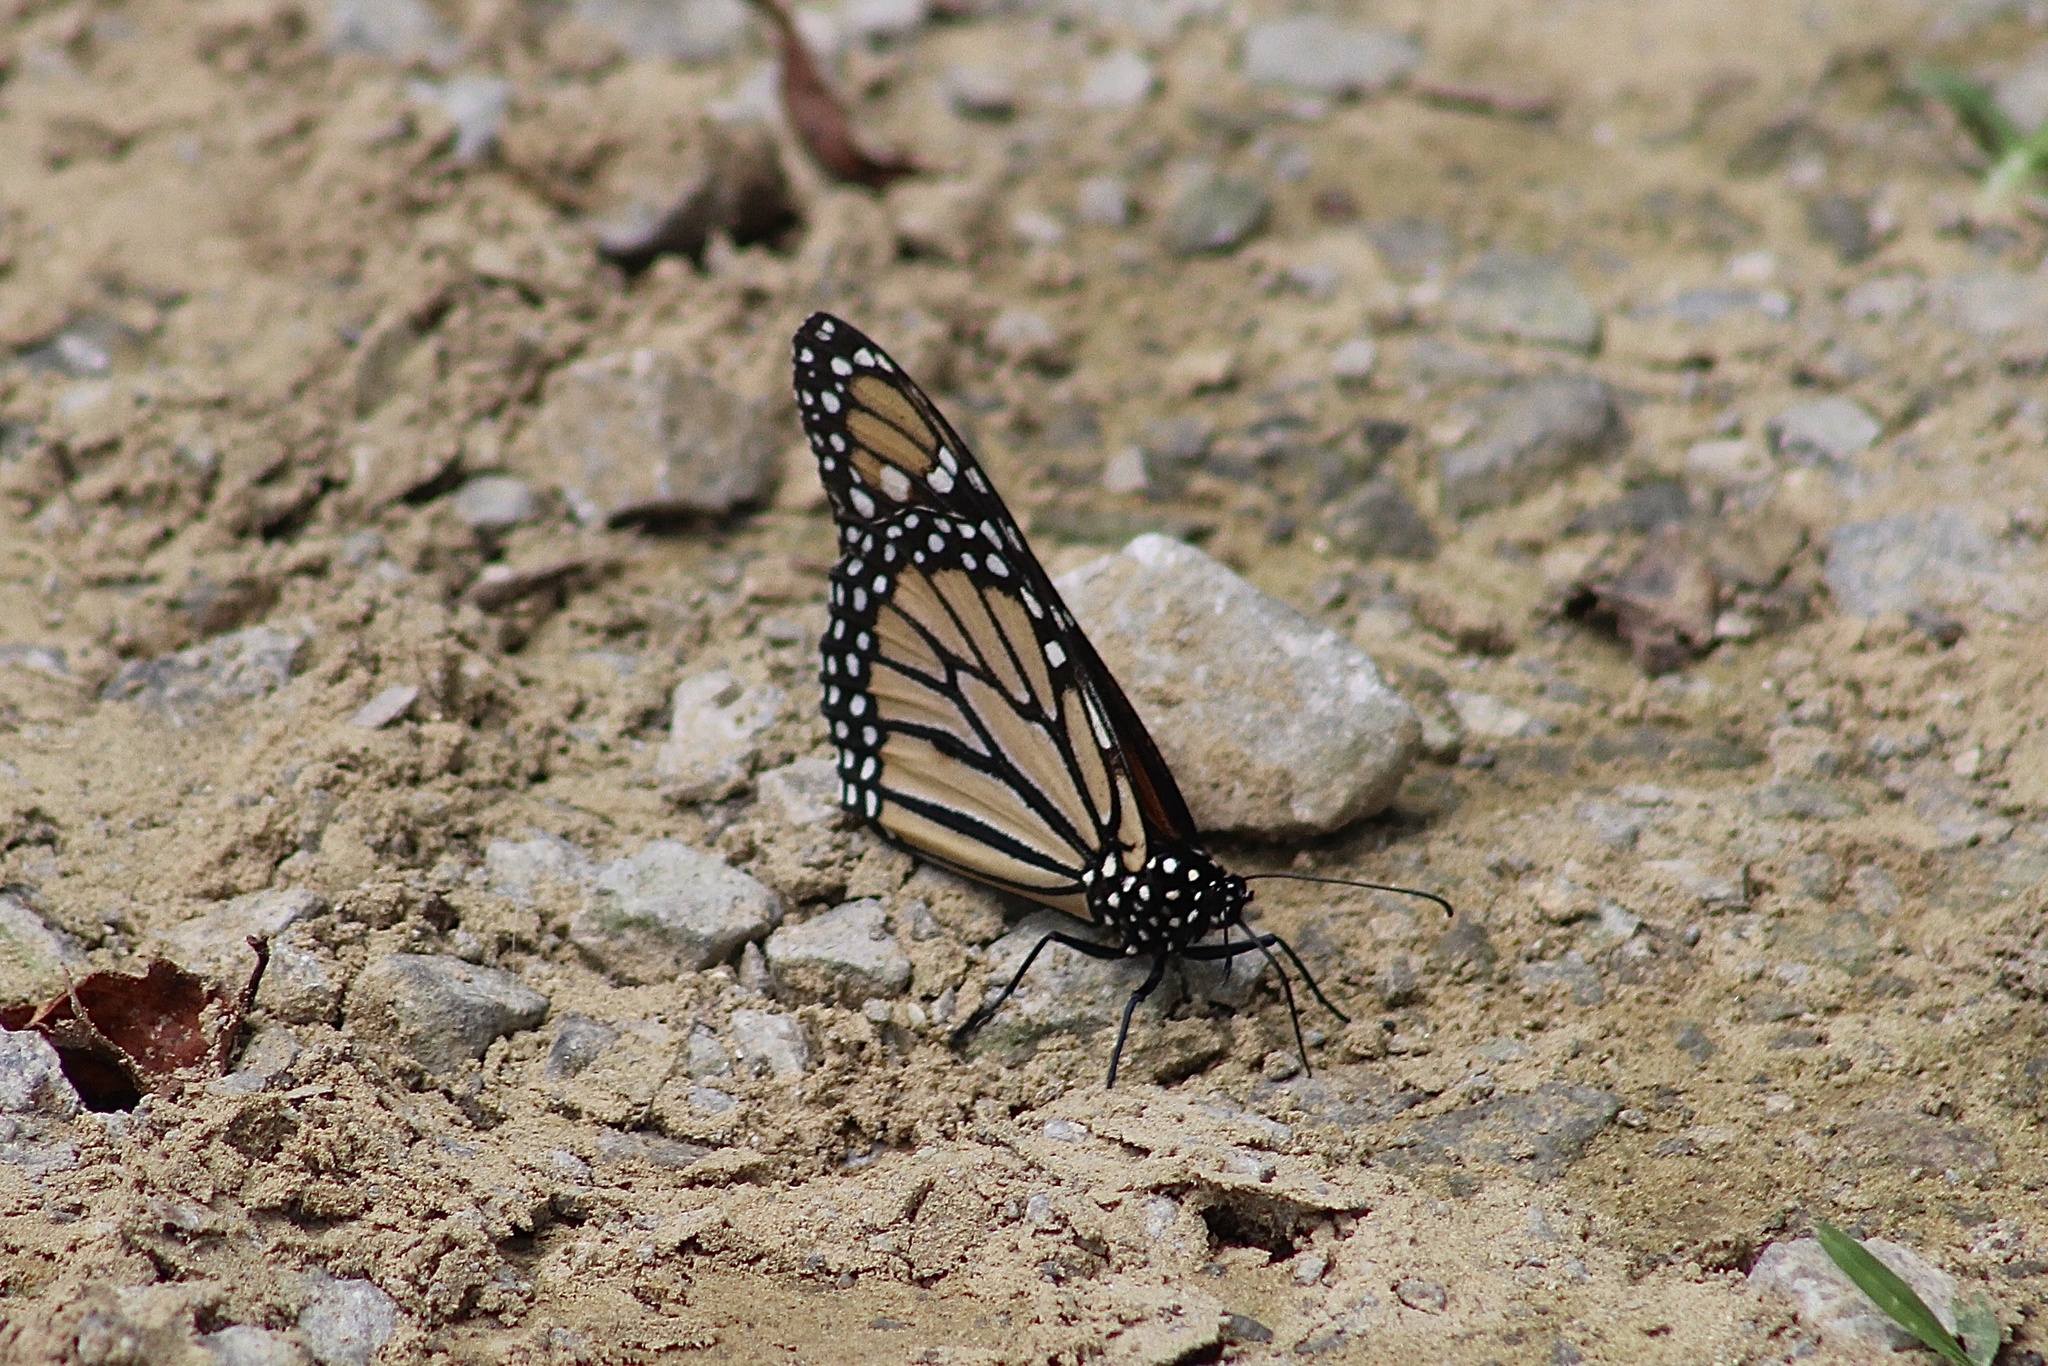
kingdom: Animalia
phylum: Arthropoda
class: Insecta
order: Lepidoptera
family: Nymphalidae
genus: Danaus
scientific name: Danaus plexippus
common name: Monarch
